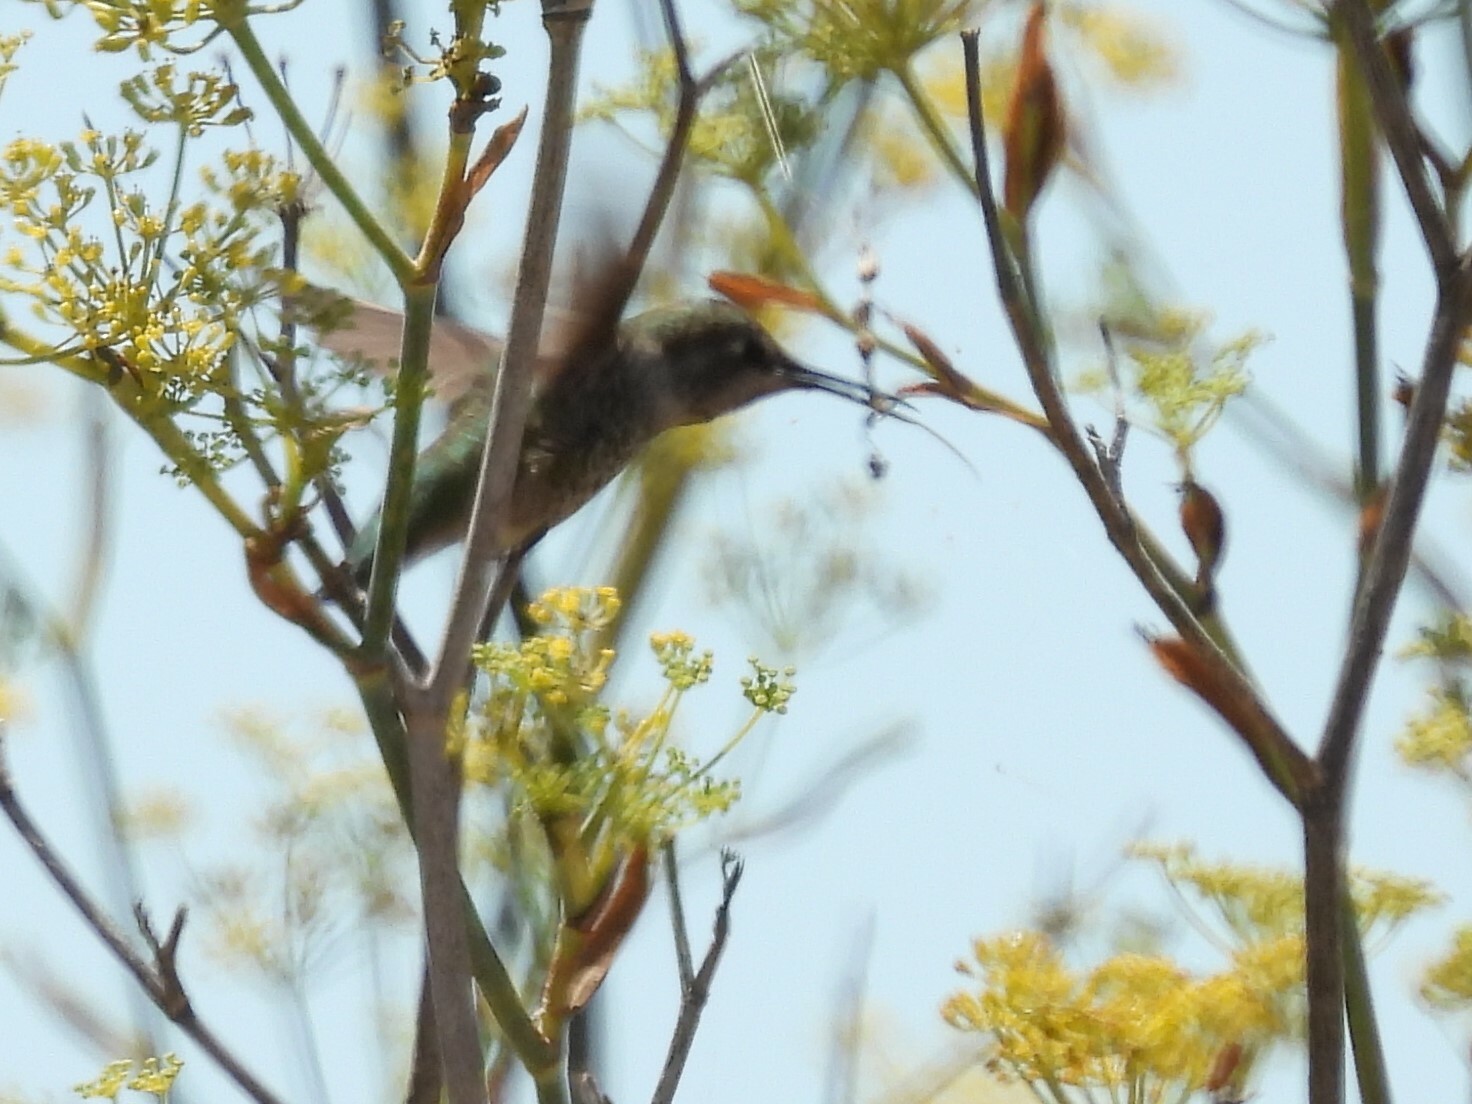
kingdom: Animalia
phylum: Chordata
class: Aves
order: Apodiformes
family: Trochilidae
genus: Calypte
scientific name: Calypte anna
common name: Anna's hummingbird
